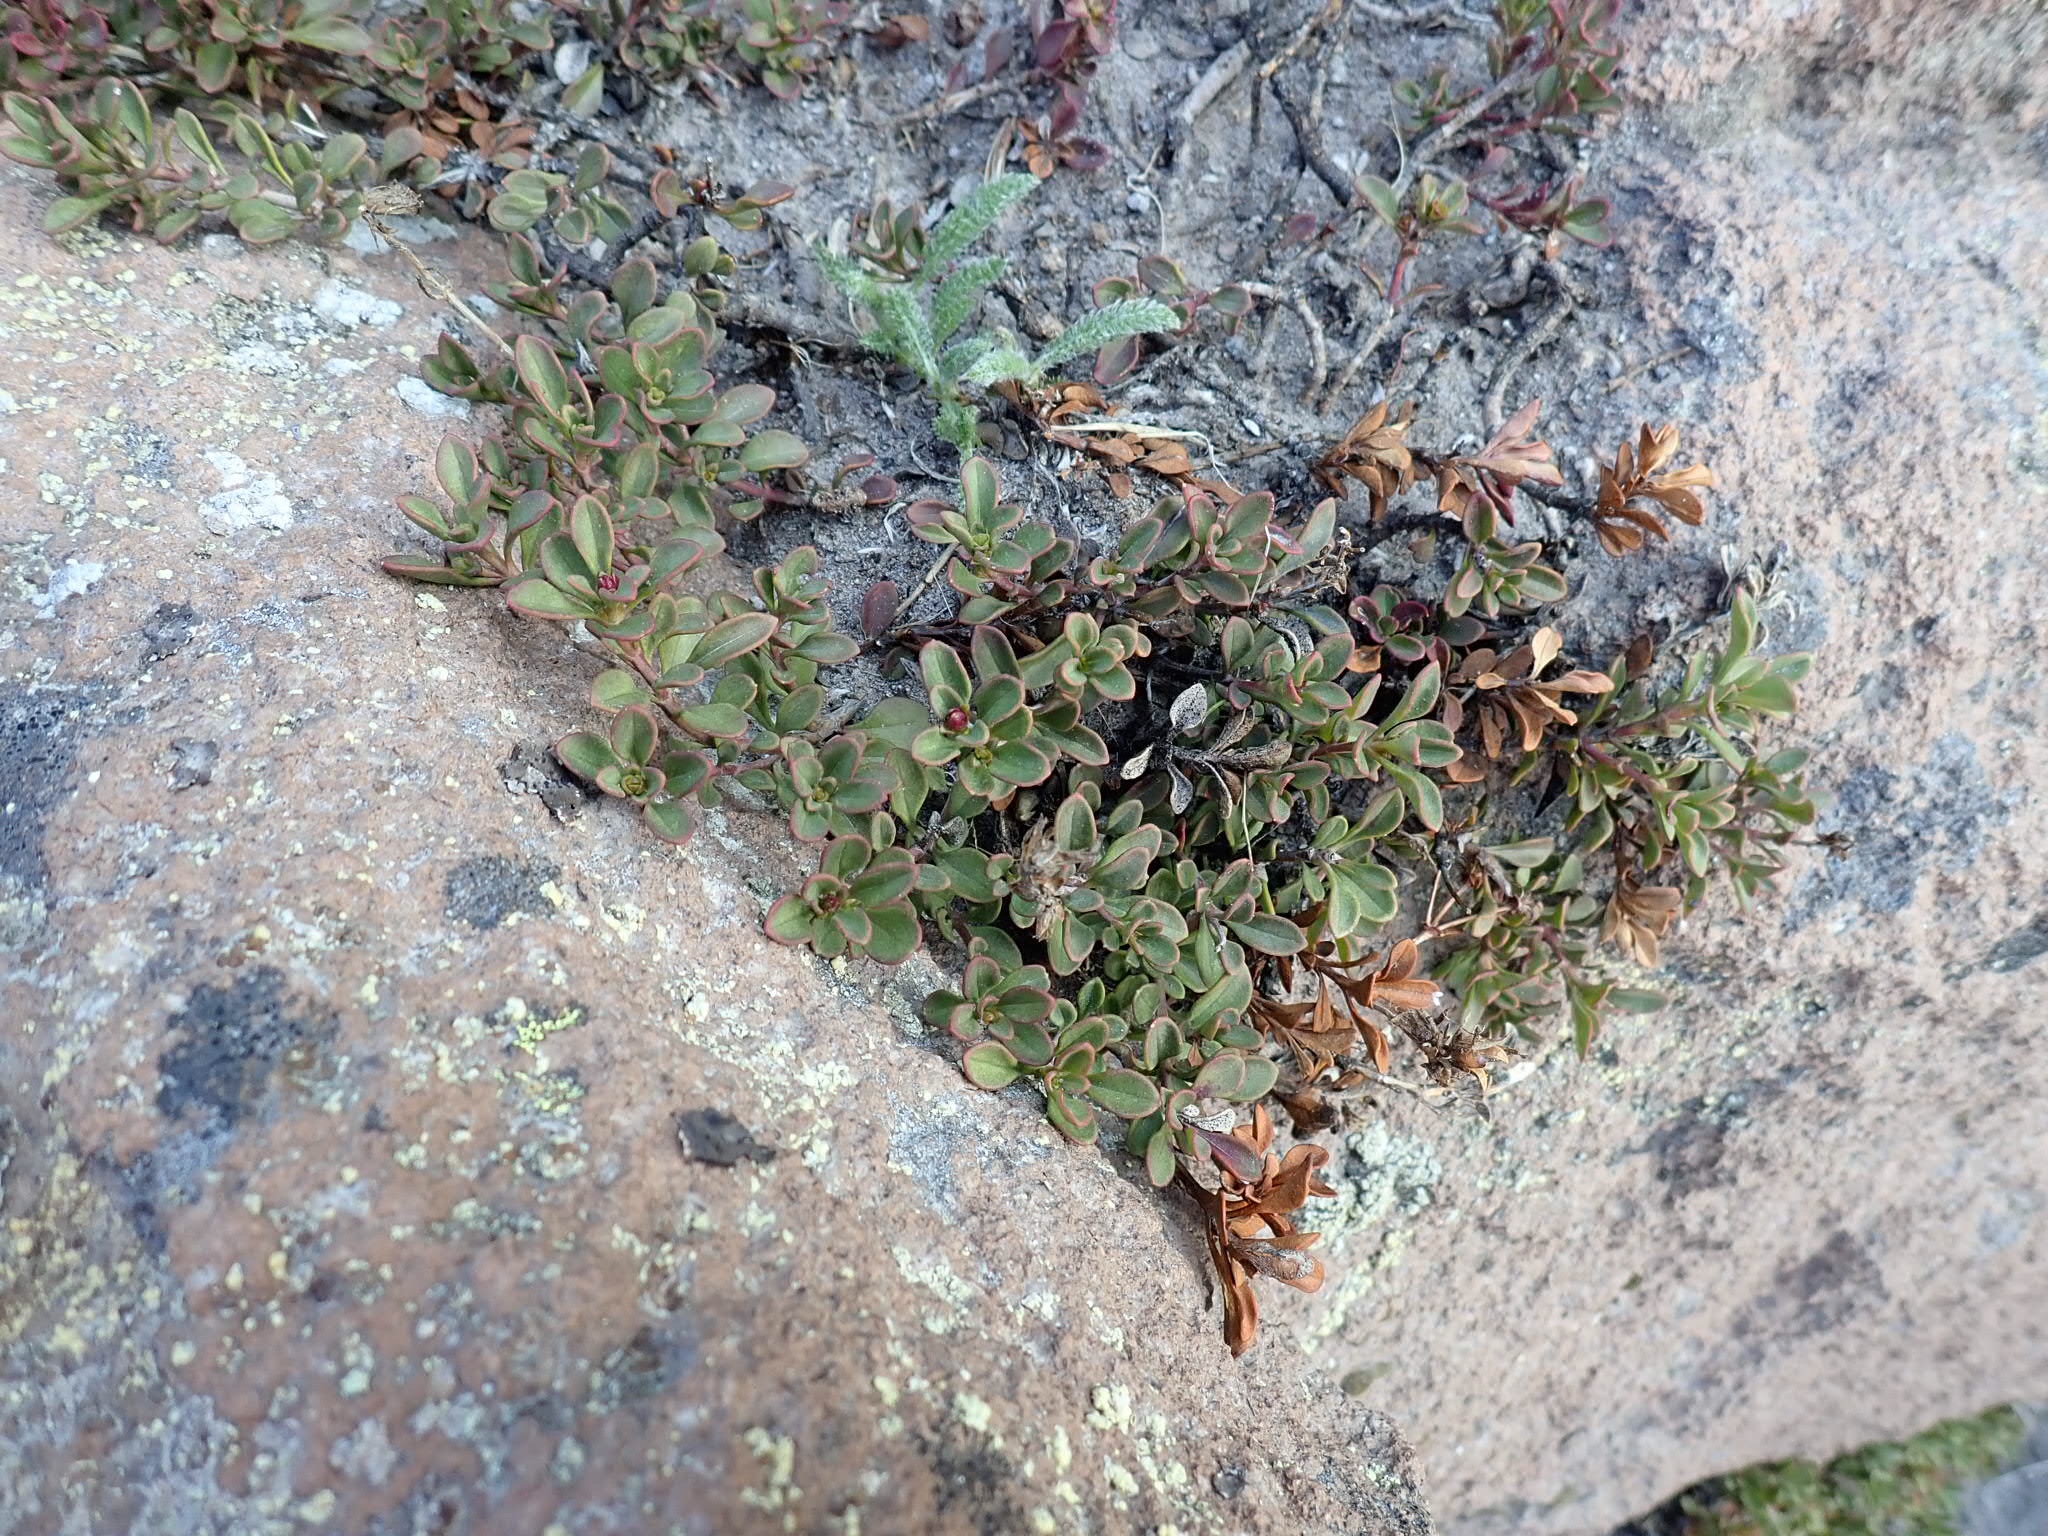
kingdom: Plantae
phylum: Tracheophyta
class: Magnoliopsida
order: Lamiales
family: Plantaginaceae
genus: Penstemon
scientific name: Penstemon davidsonii
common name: Davidson's penstemon
